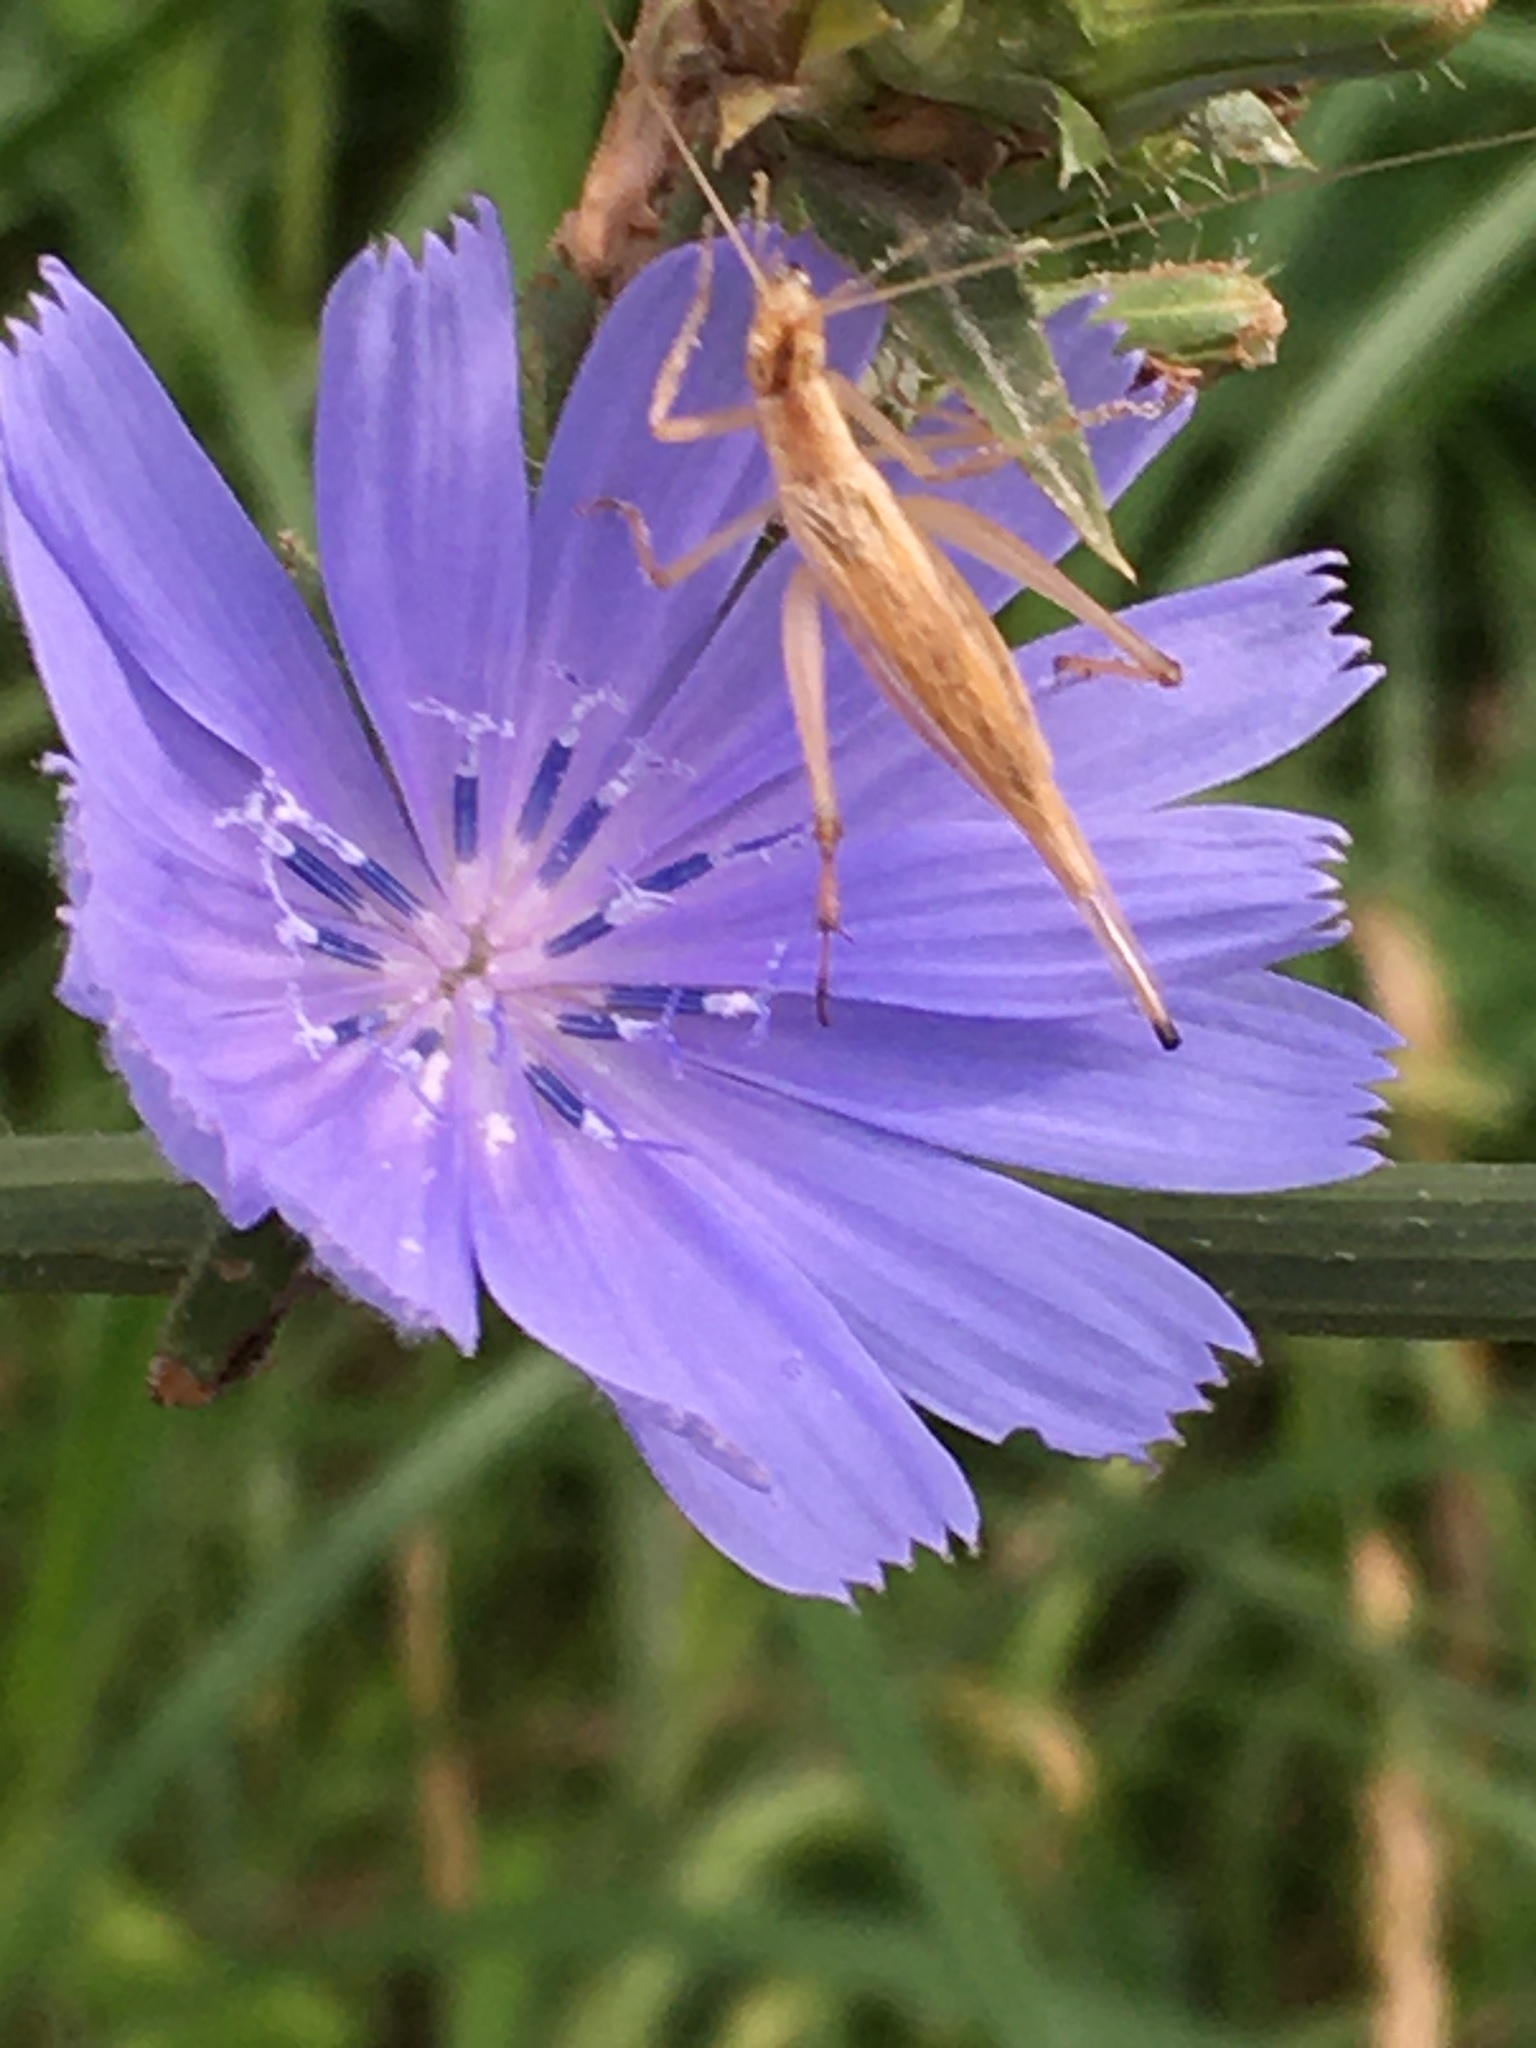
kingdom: Animalia
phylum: Arthropoda
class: Insecta
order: Orthoptera
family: Gryllidae
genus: Oecanthus
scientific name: Oecanthus pellucens
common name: Tree-cricket
